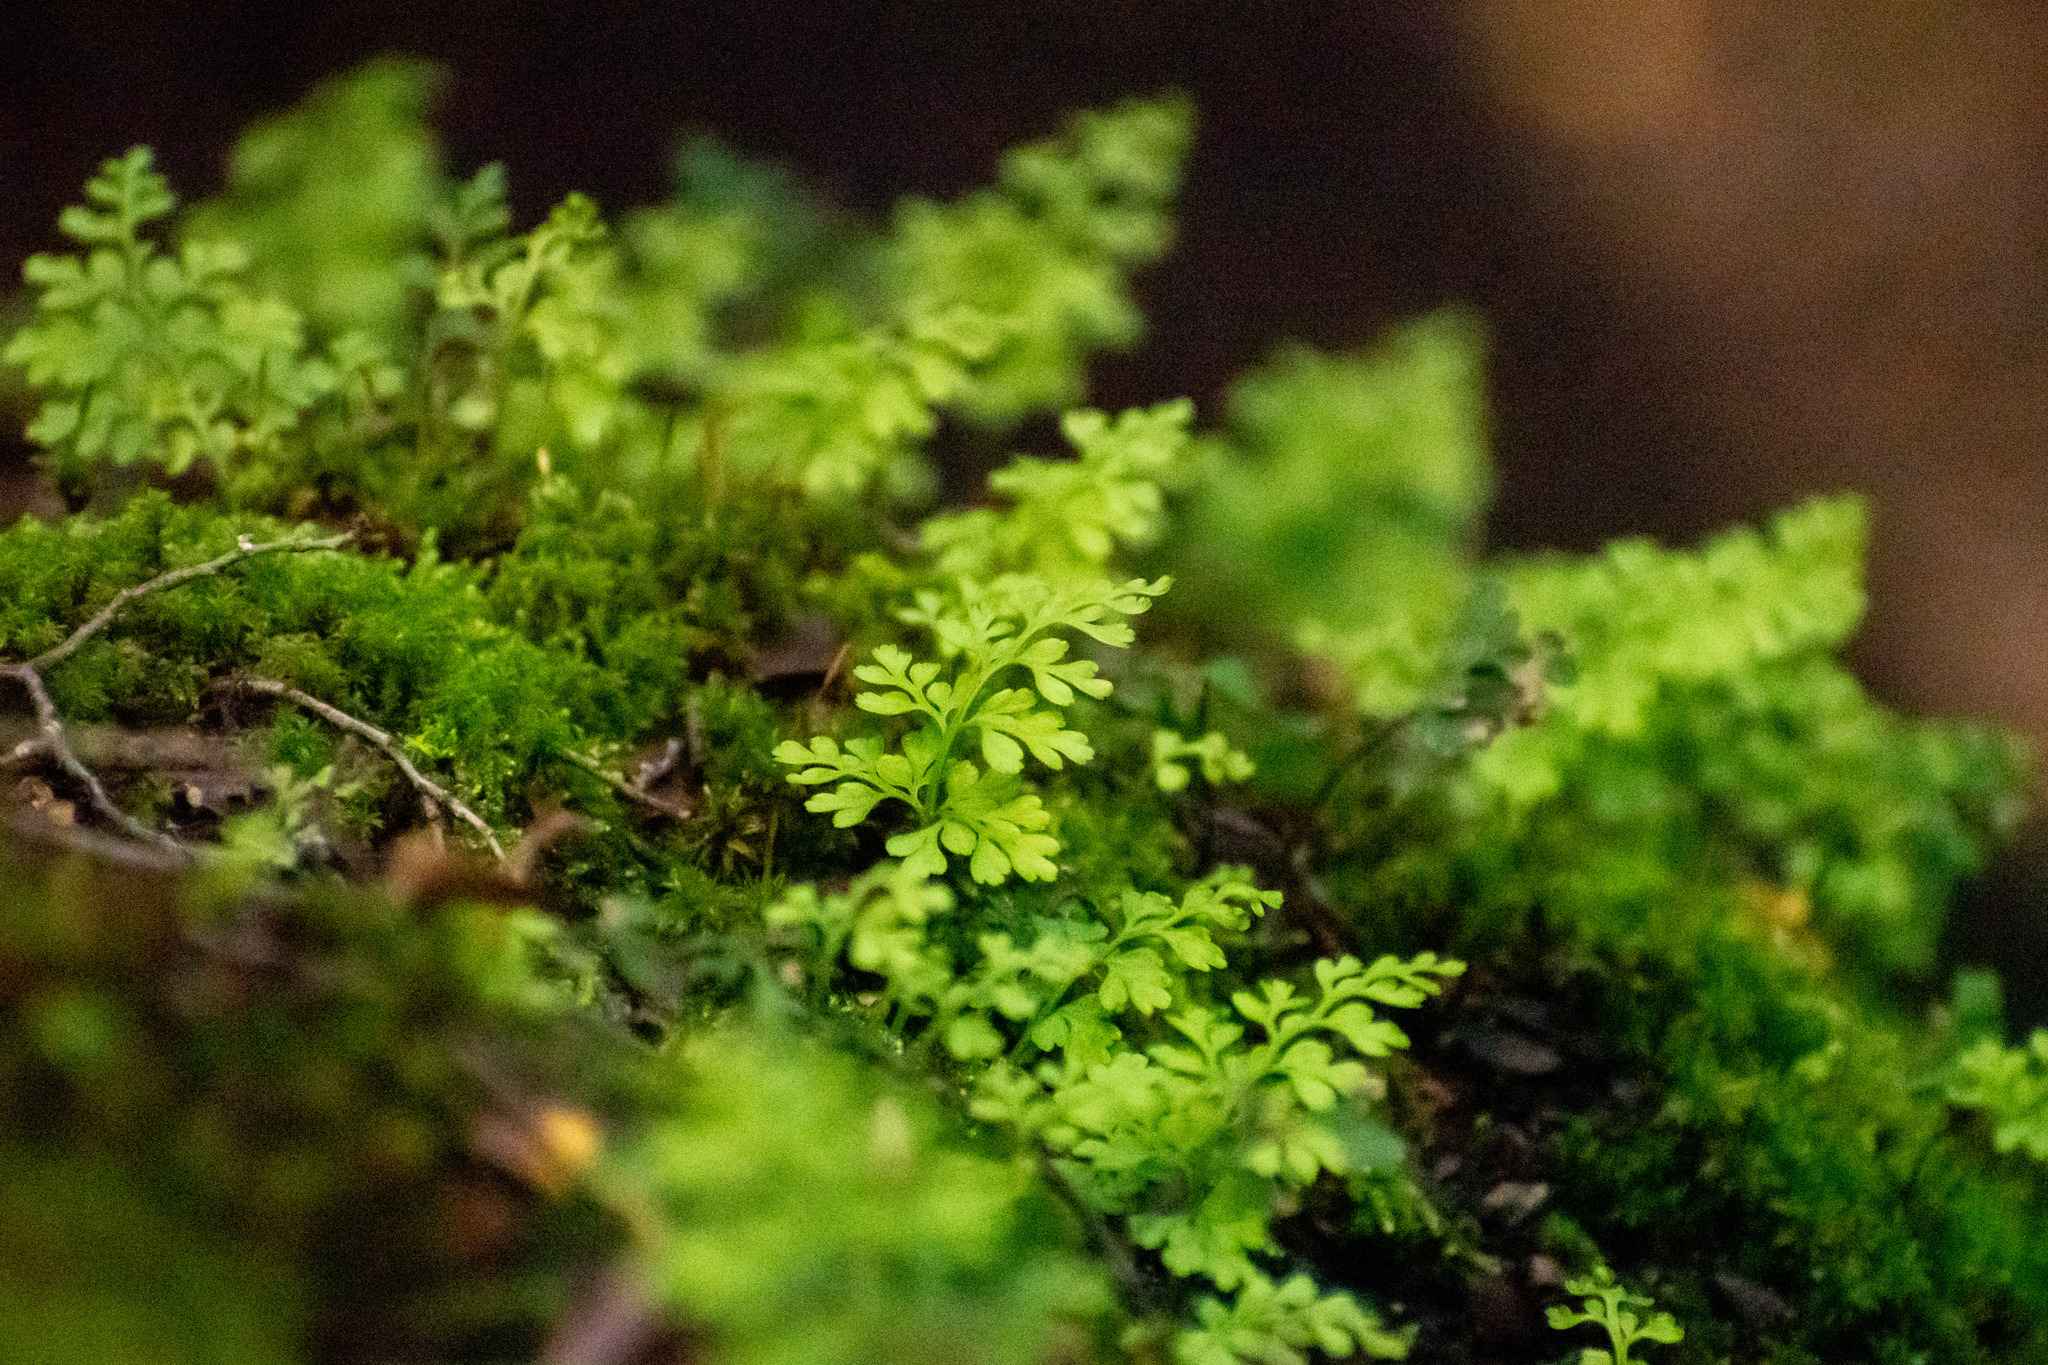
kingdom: Plantae
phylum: Tracheophyta
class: Polypodiopsida
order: Polypodiales
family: Aspleniaceae
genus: Asplenium
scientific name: Asplenium dareoides
